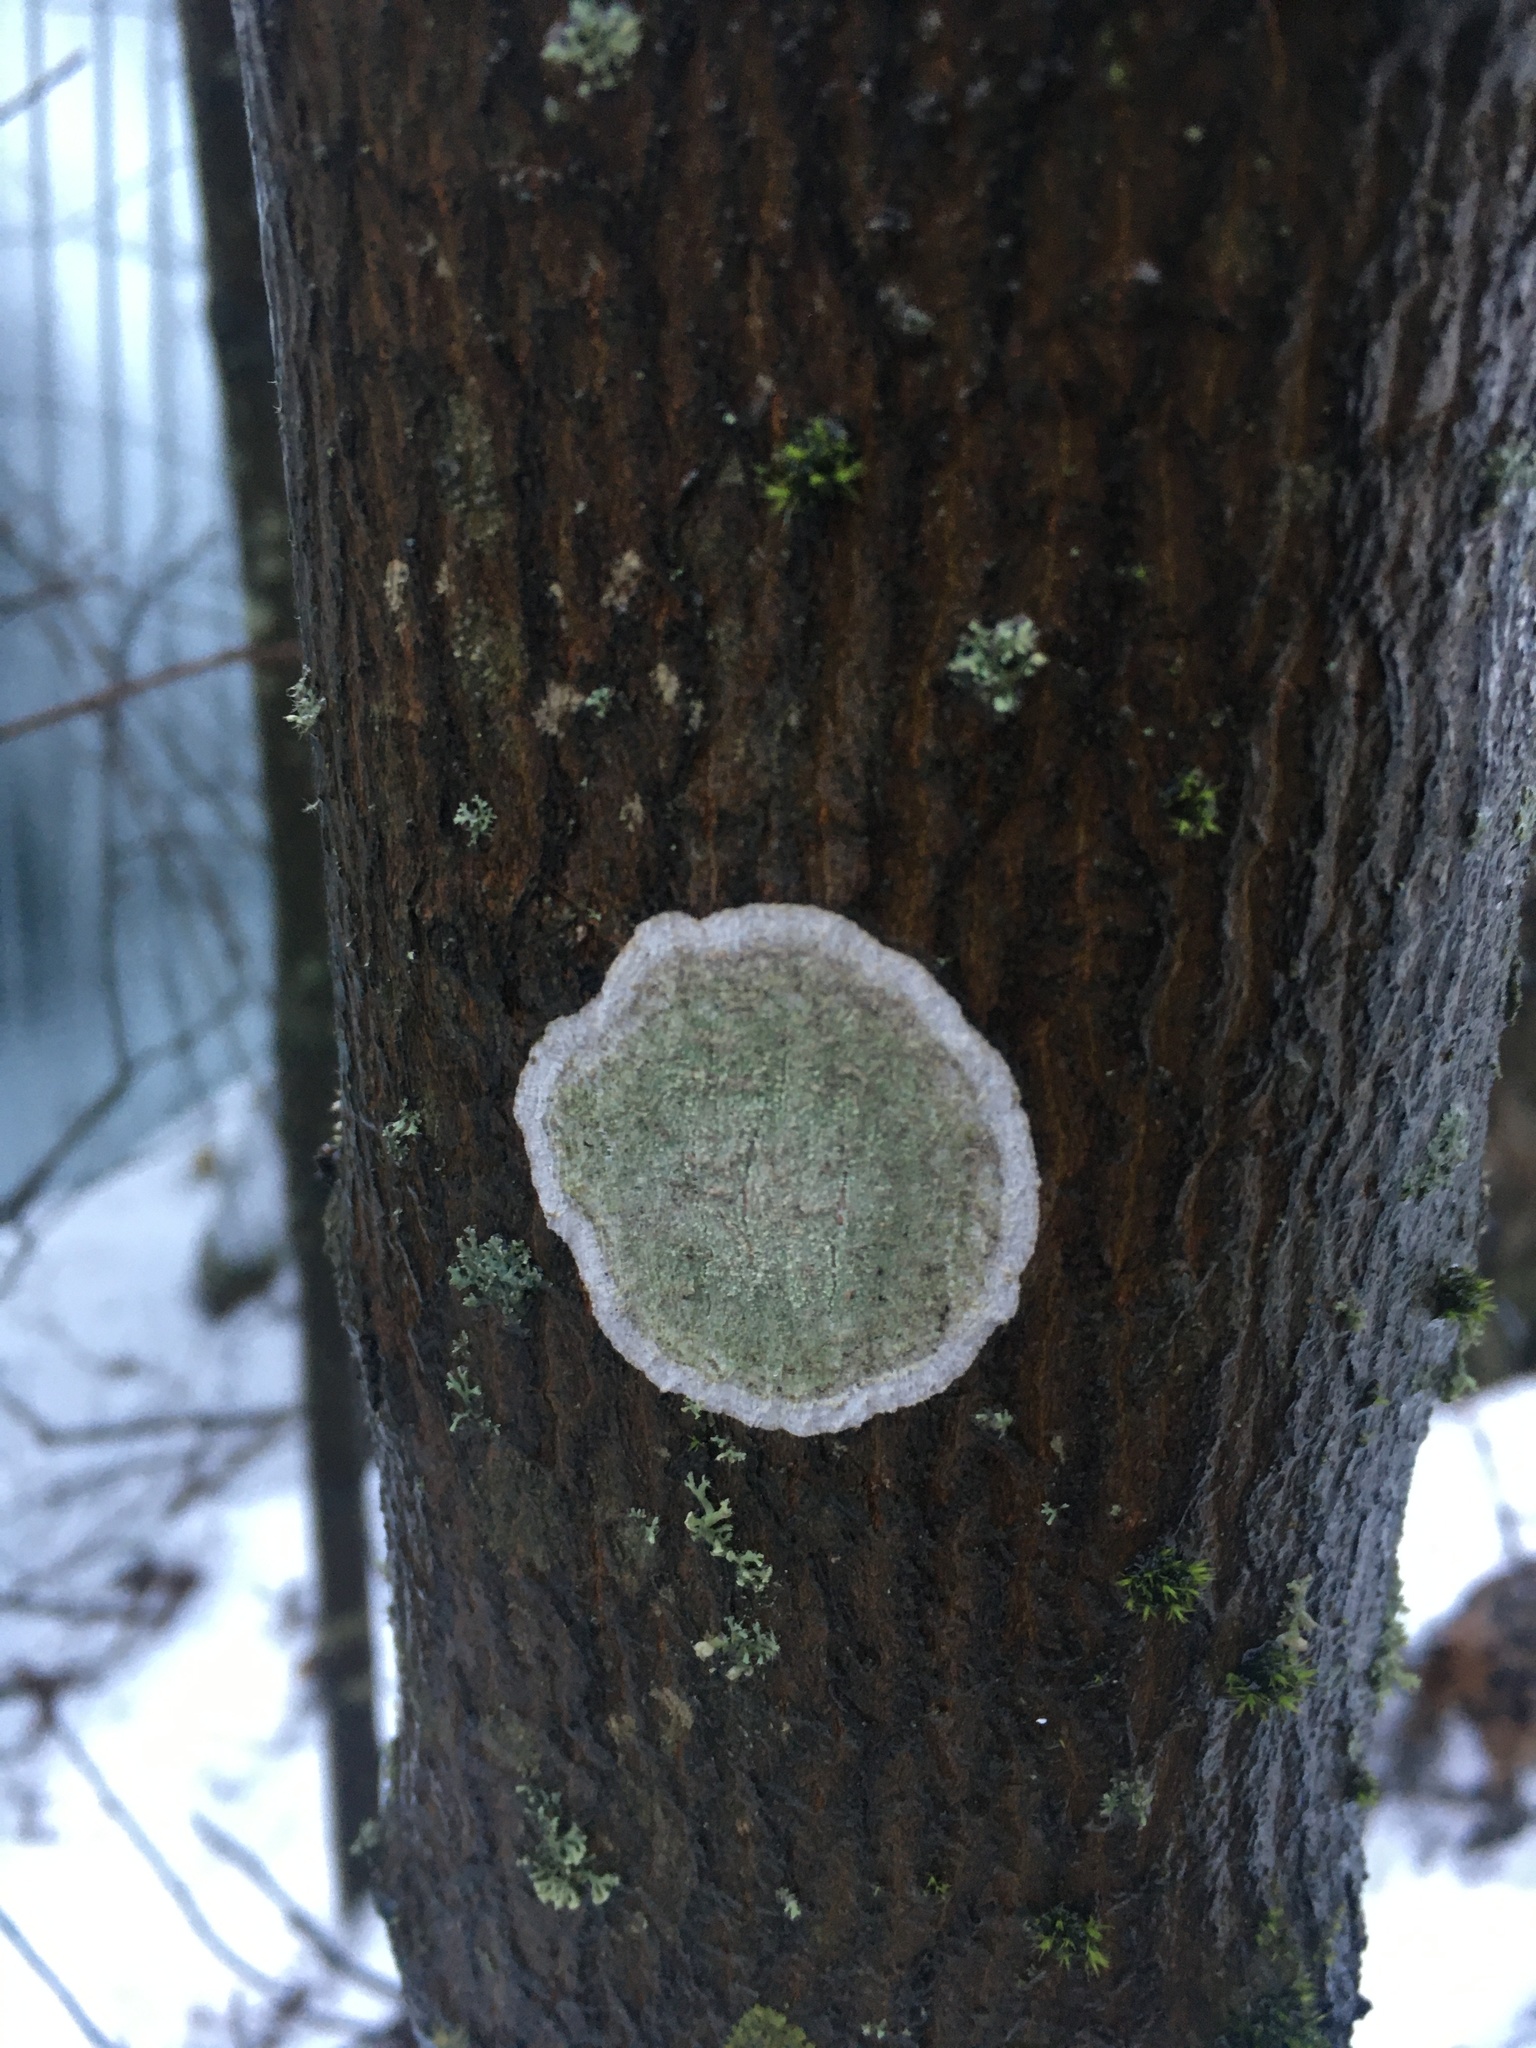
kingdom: Fungi
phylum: Ascomycota
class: Lecanoromycetes
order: Ostropales
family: Phlyctidaceae
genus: Phlyctis
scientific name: Phlyctis argena
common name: Whitewash lichen
